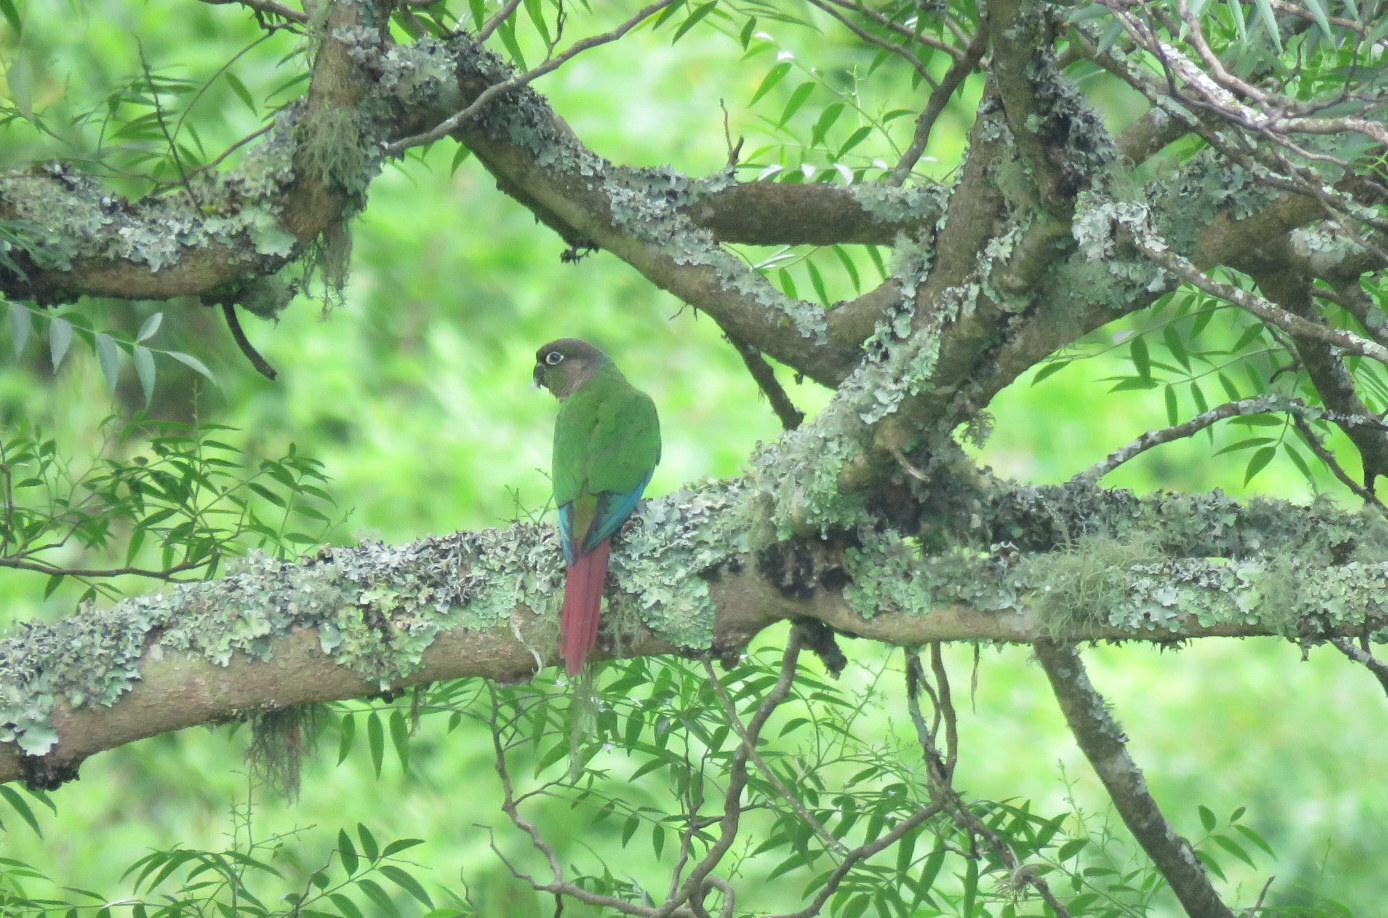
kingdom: Animalia
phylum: Chordata
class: Aves
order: Psittaciformes
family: Psittacidae
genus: Pyrrhura
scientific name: Pyrrhura molinae
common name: Green-cheeked parakeet
